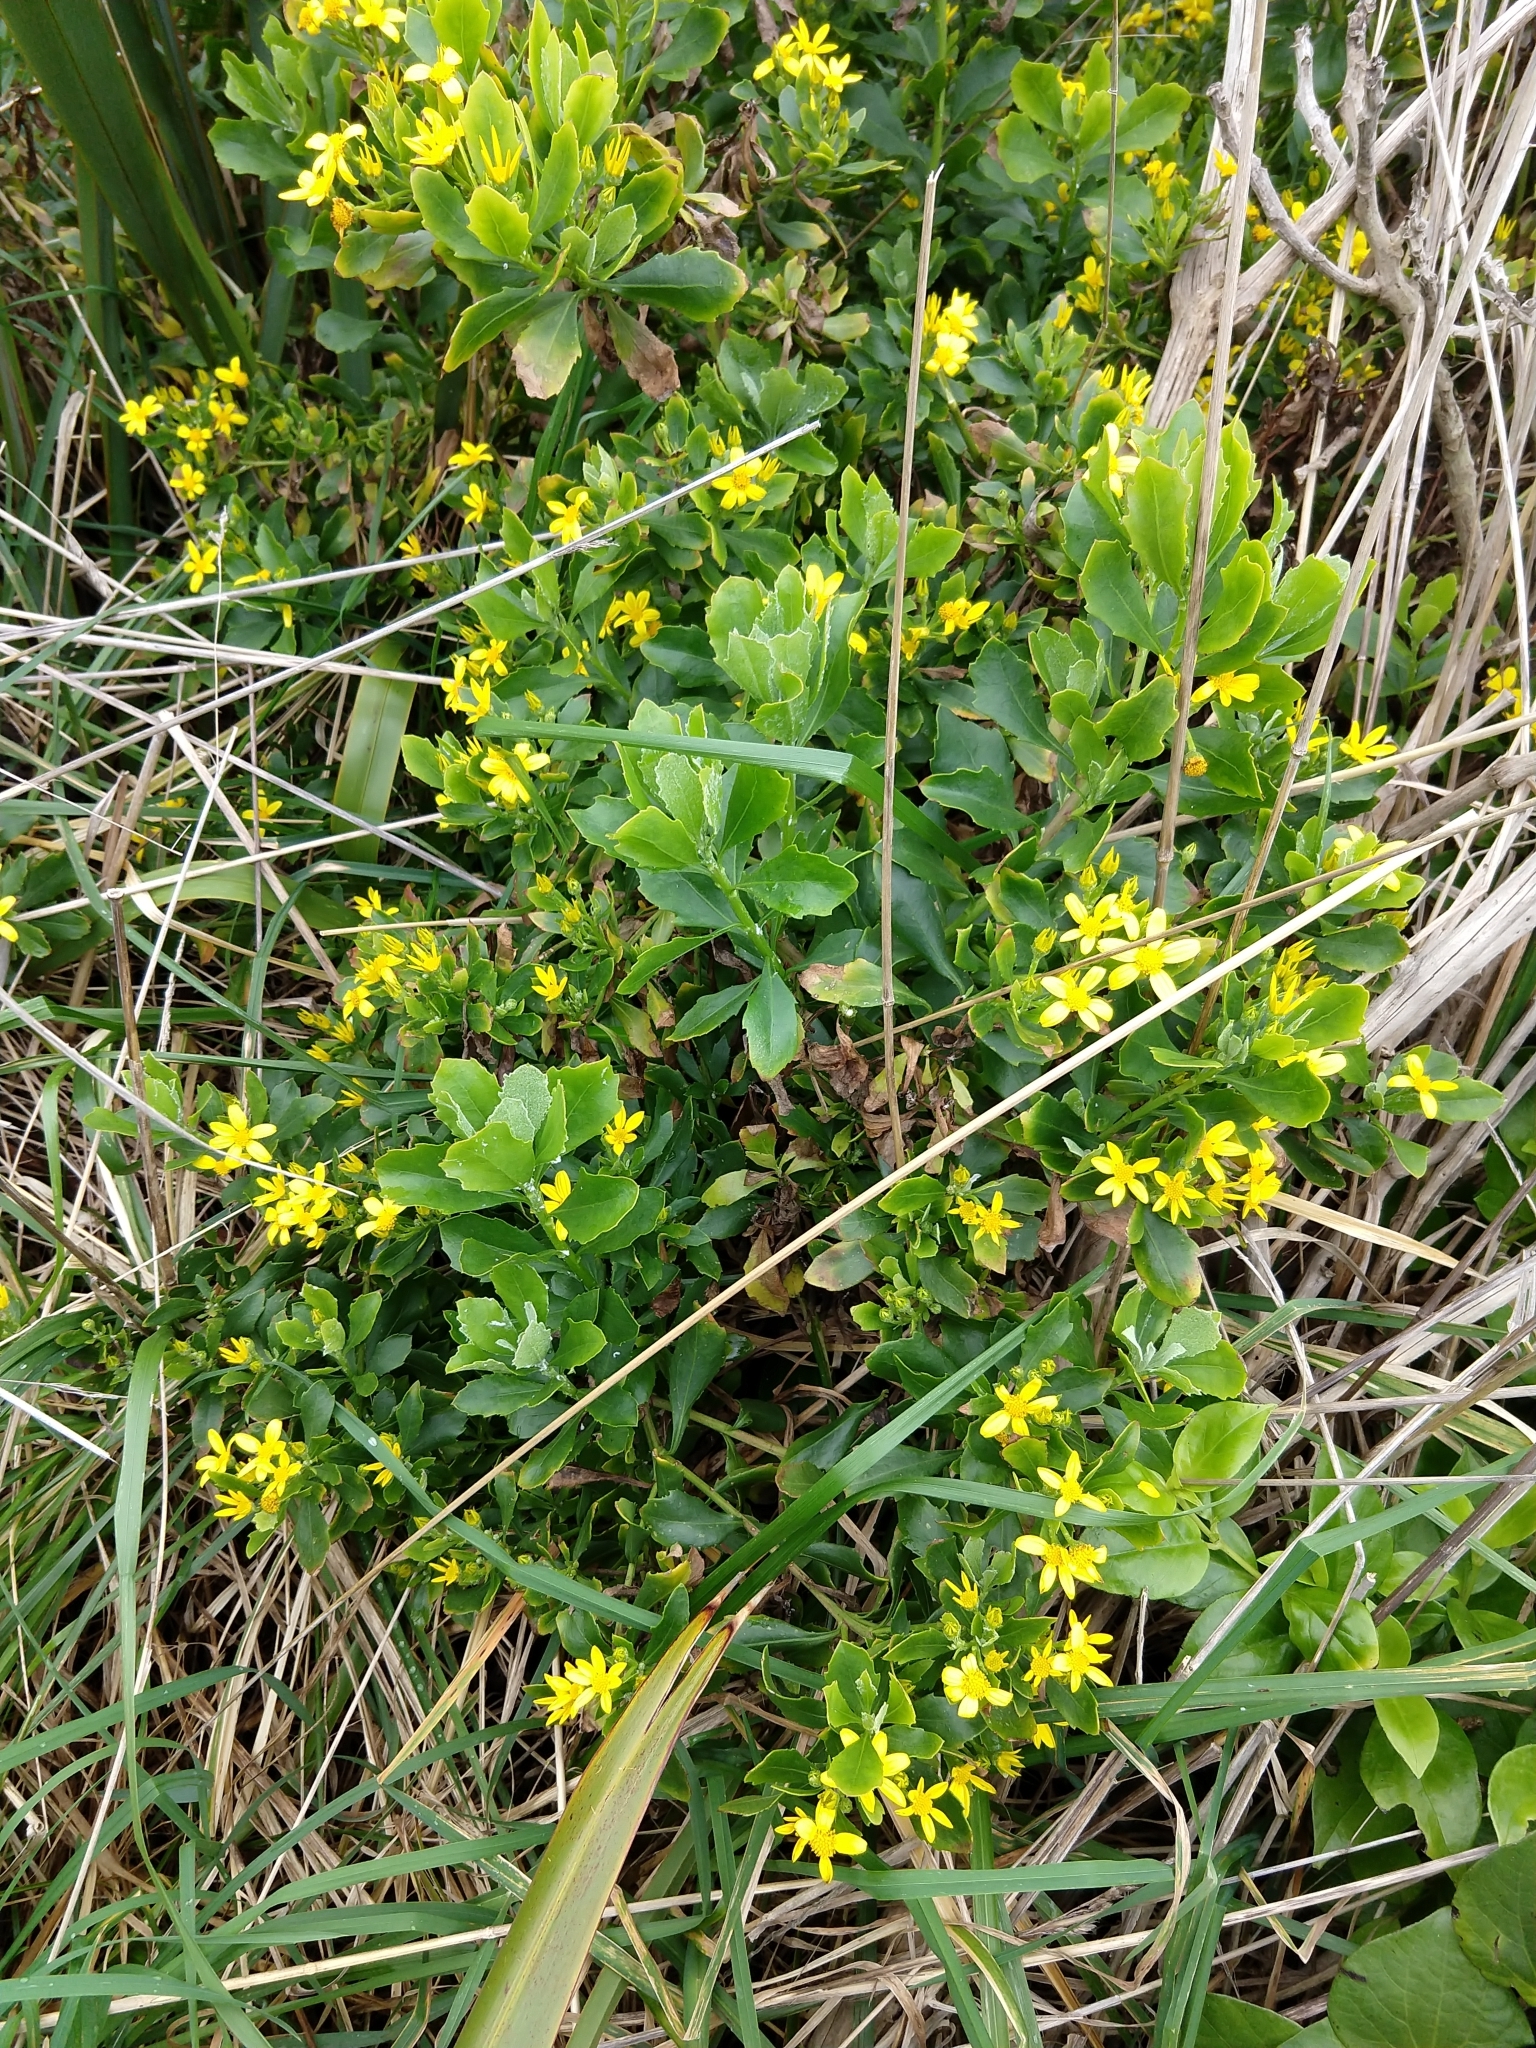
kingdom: Plantae
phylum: Tracheophyta
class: Magnoliopsida
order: Asterales
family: Asteraceae
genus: Osteospermum
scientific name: Osteospermum moniliferum
